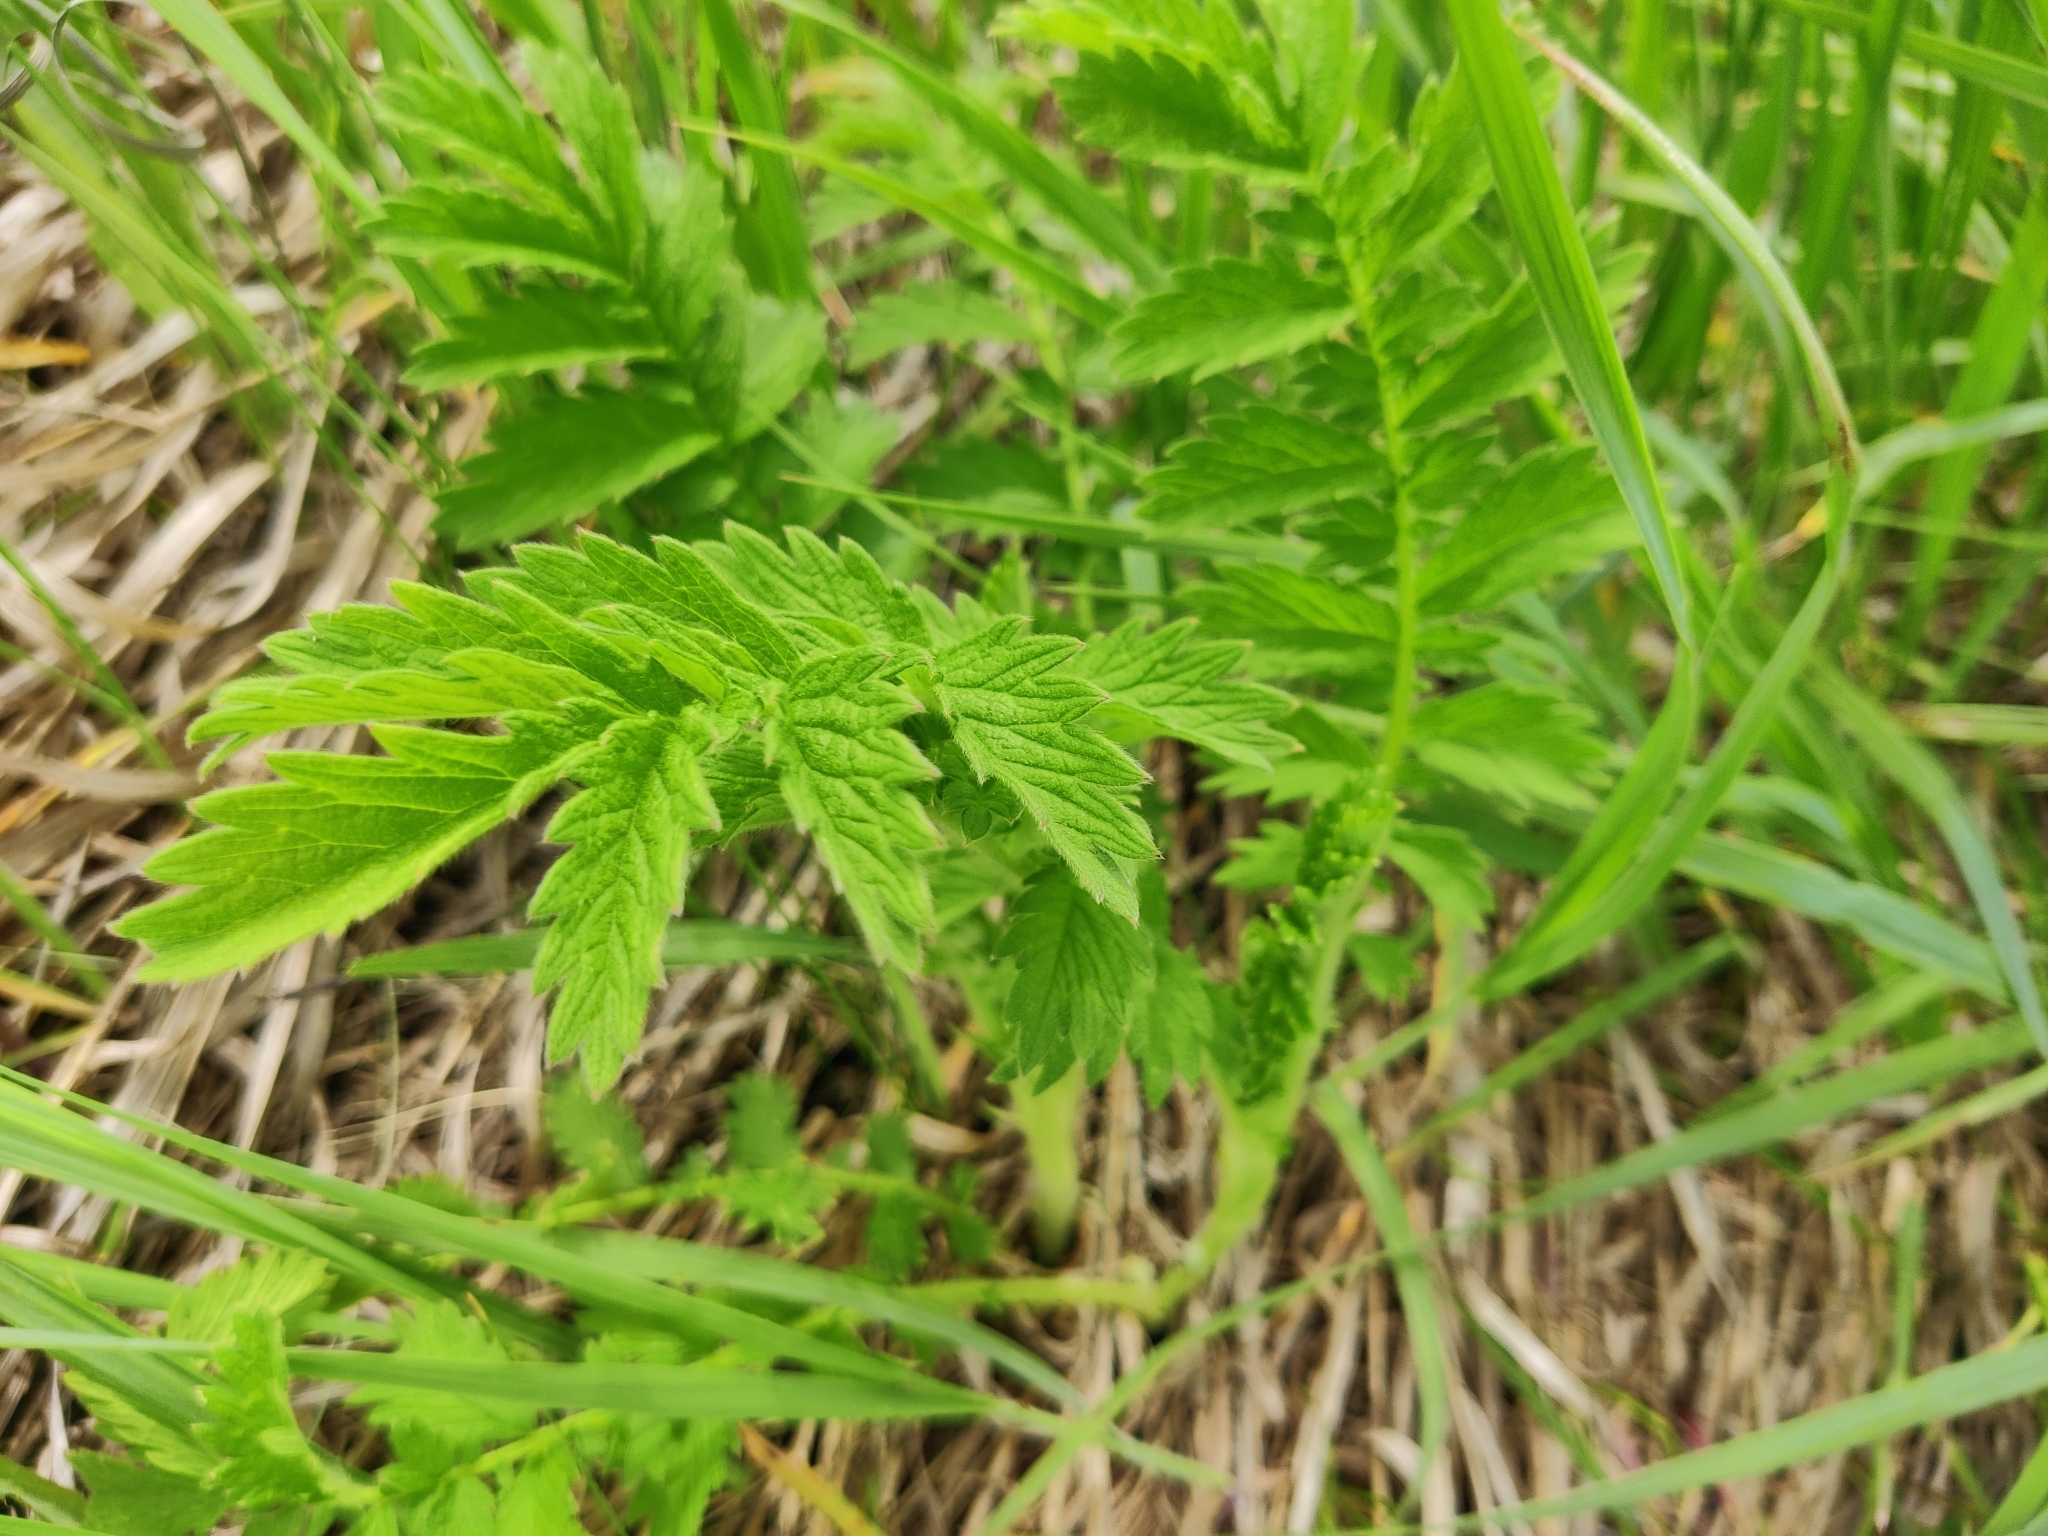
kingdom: Plantae
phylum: Tracheophyta
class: Magnoliopsida
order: Rosales
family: Rosaceae
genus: Agrimonia
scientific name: Agrimonia eupatoria
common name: Agrimony
